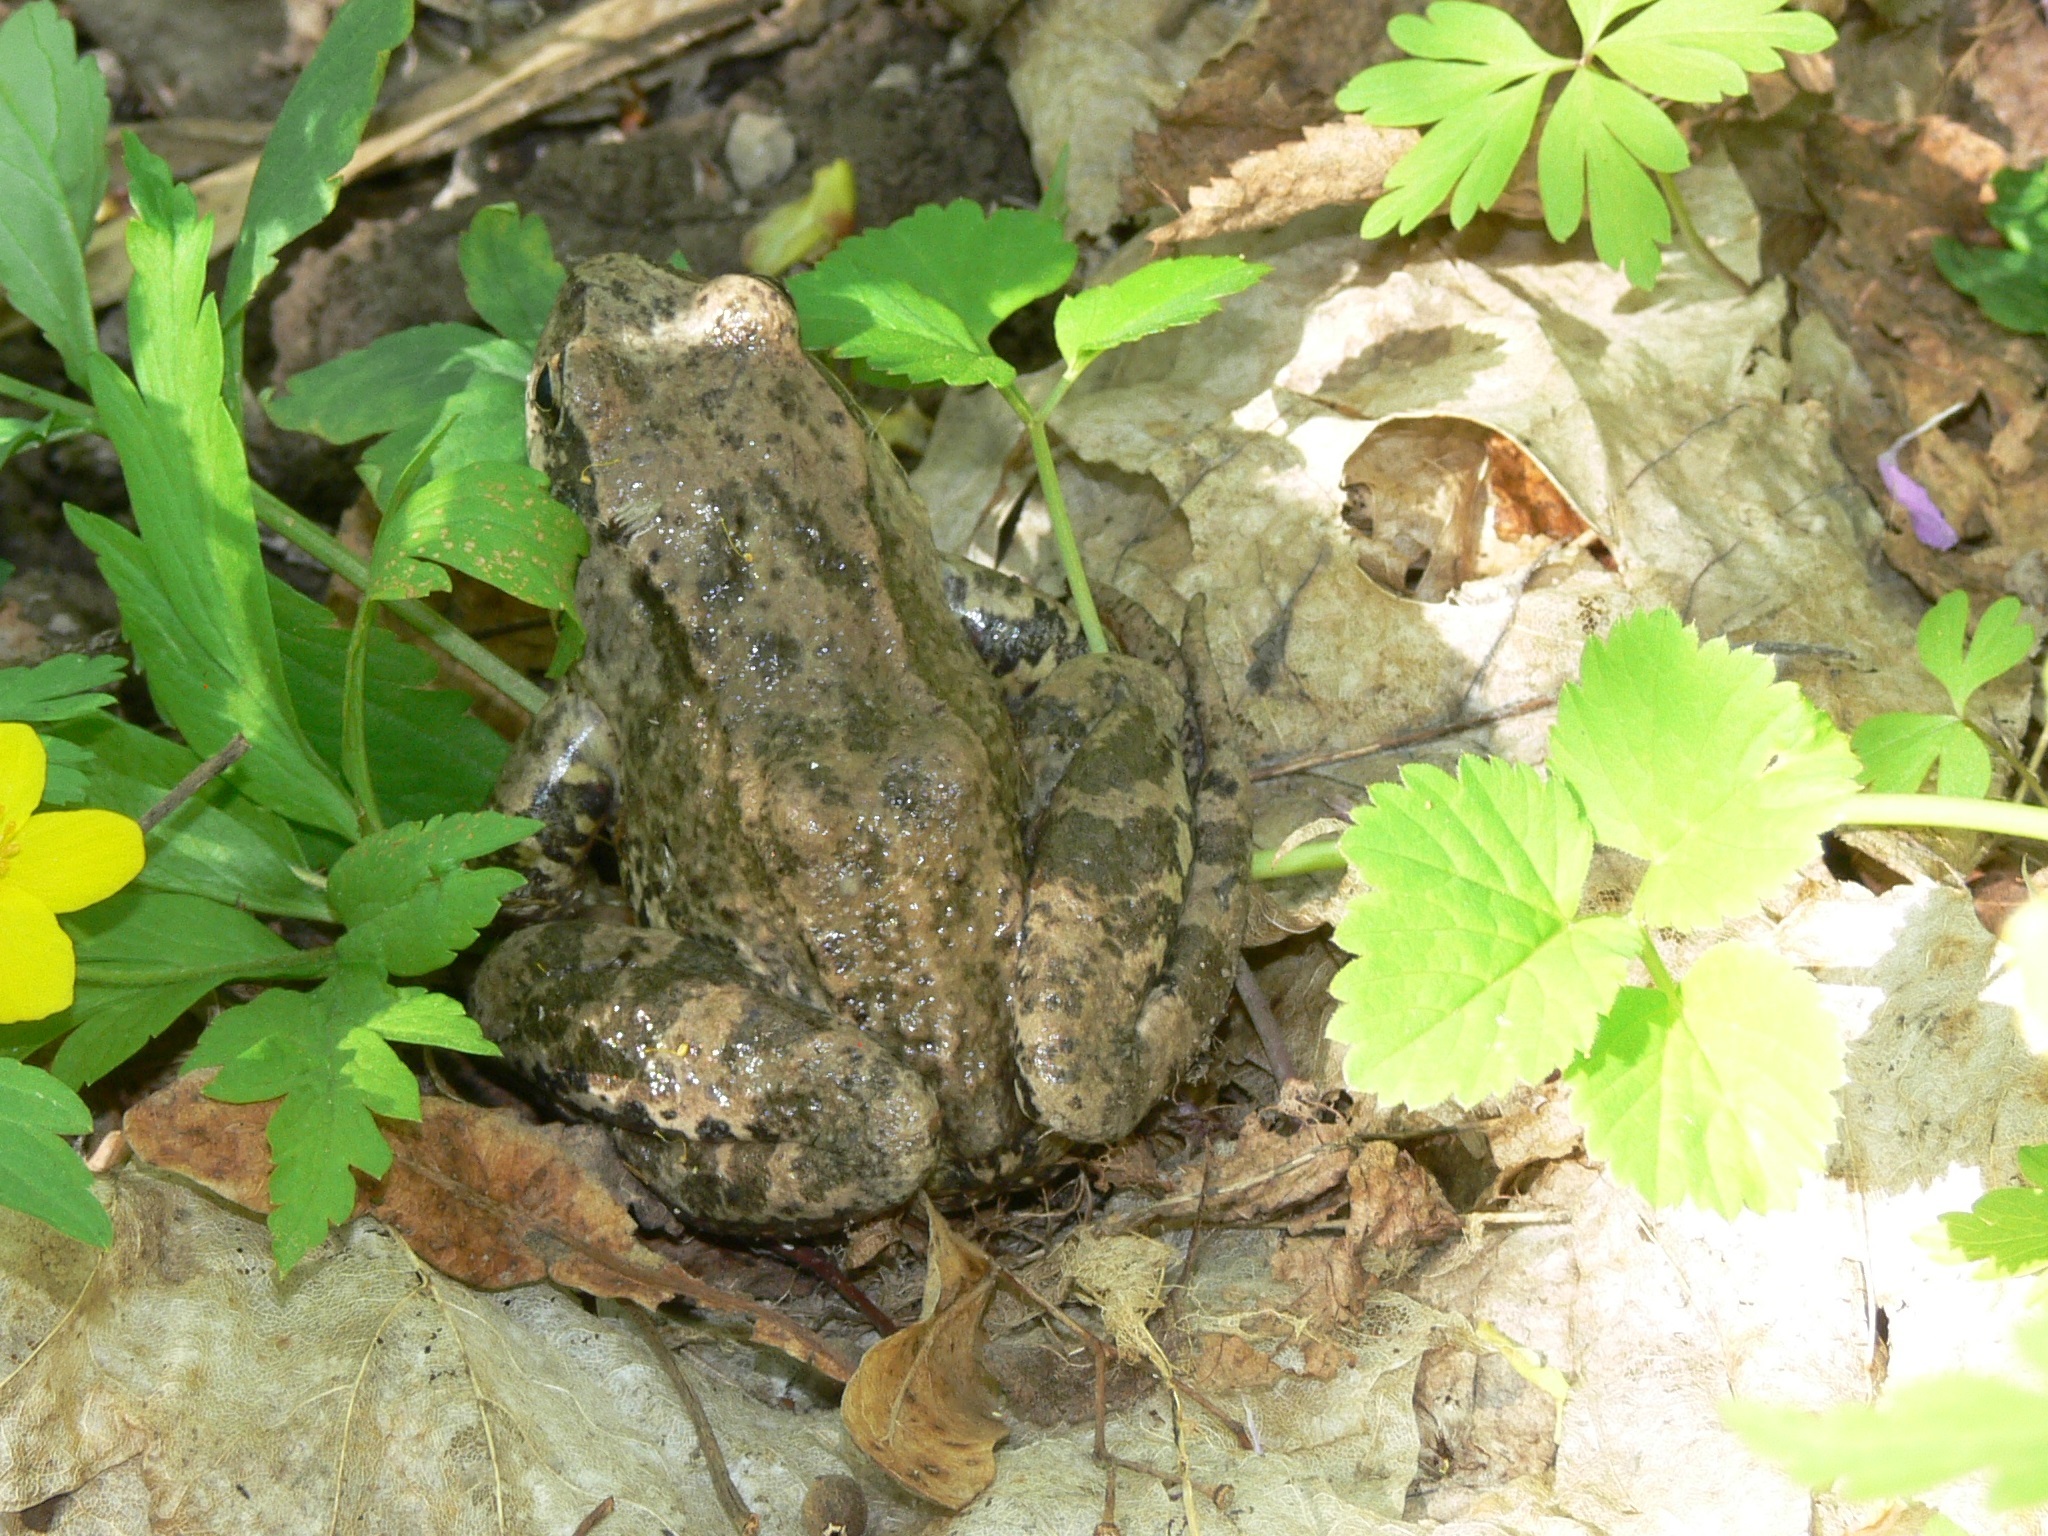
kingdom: Animalia
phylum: Chordata
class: Amphibia
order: Anura
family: Ranidae
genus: Rana
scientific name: Rana temporaria
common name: Common frog
